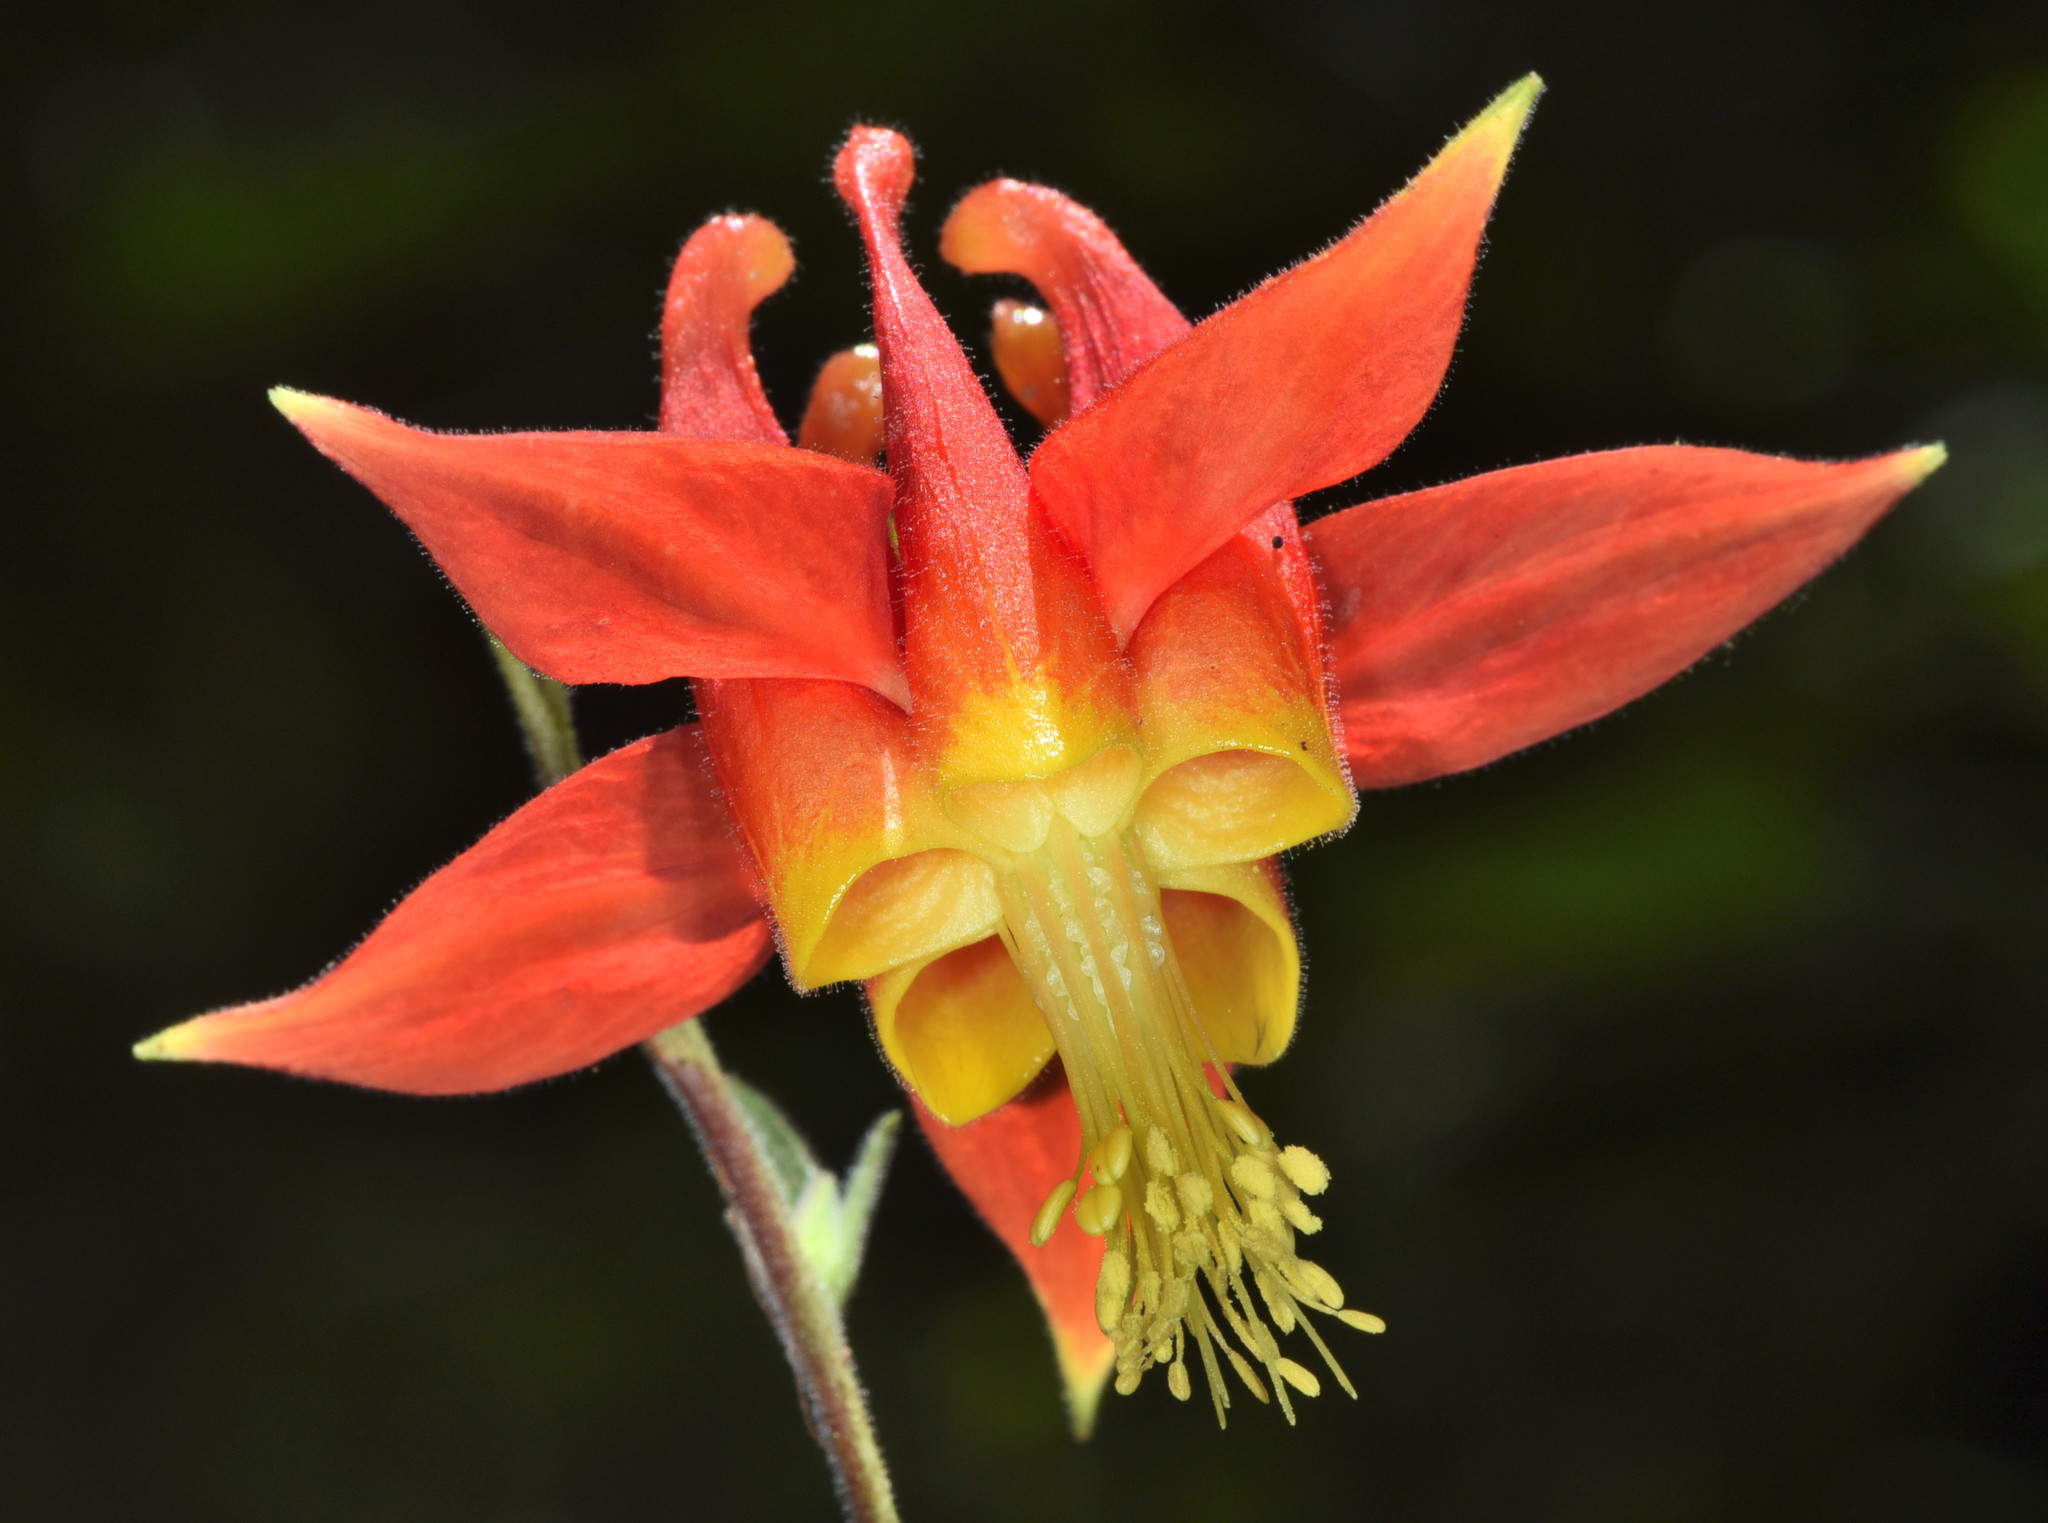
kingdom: Plantae
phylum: Tracheophyta
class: Magnoliopsida
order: Ranunculales
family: Ranunculaceae
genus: Aquilegia
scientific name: Aquilegia formosa
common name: Sitka columbine
